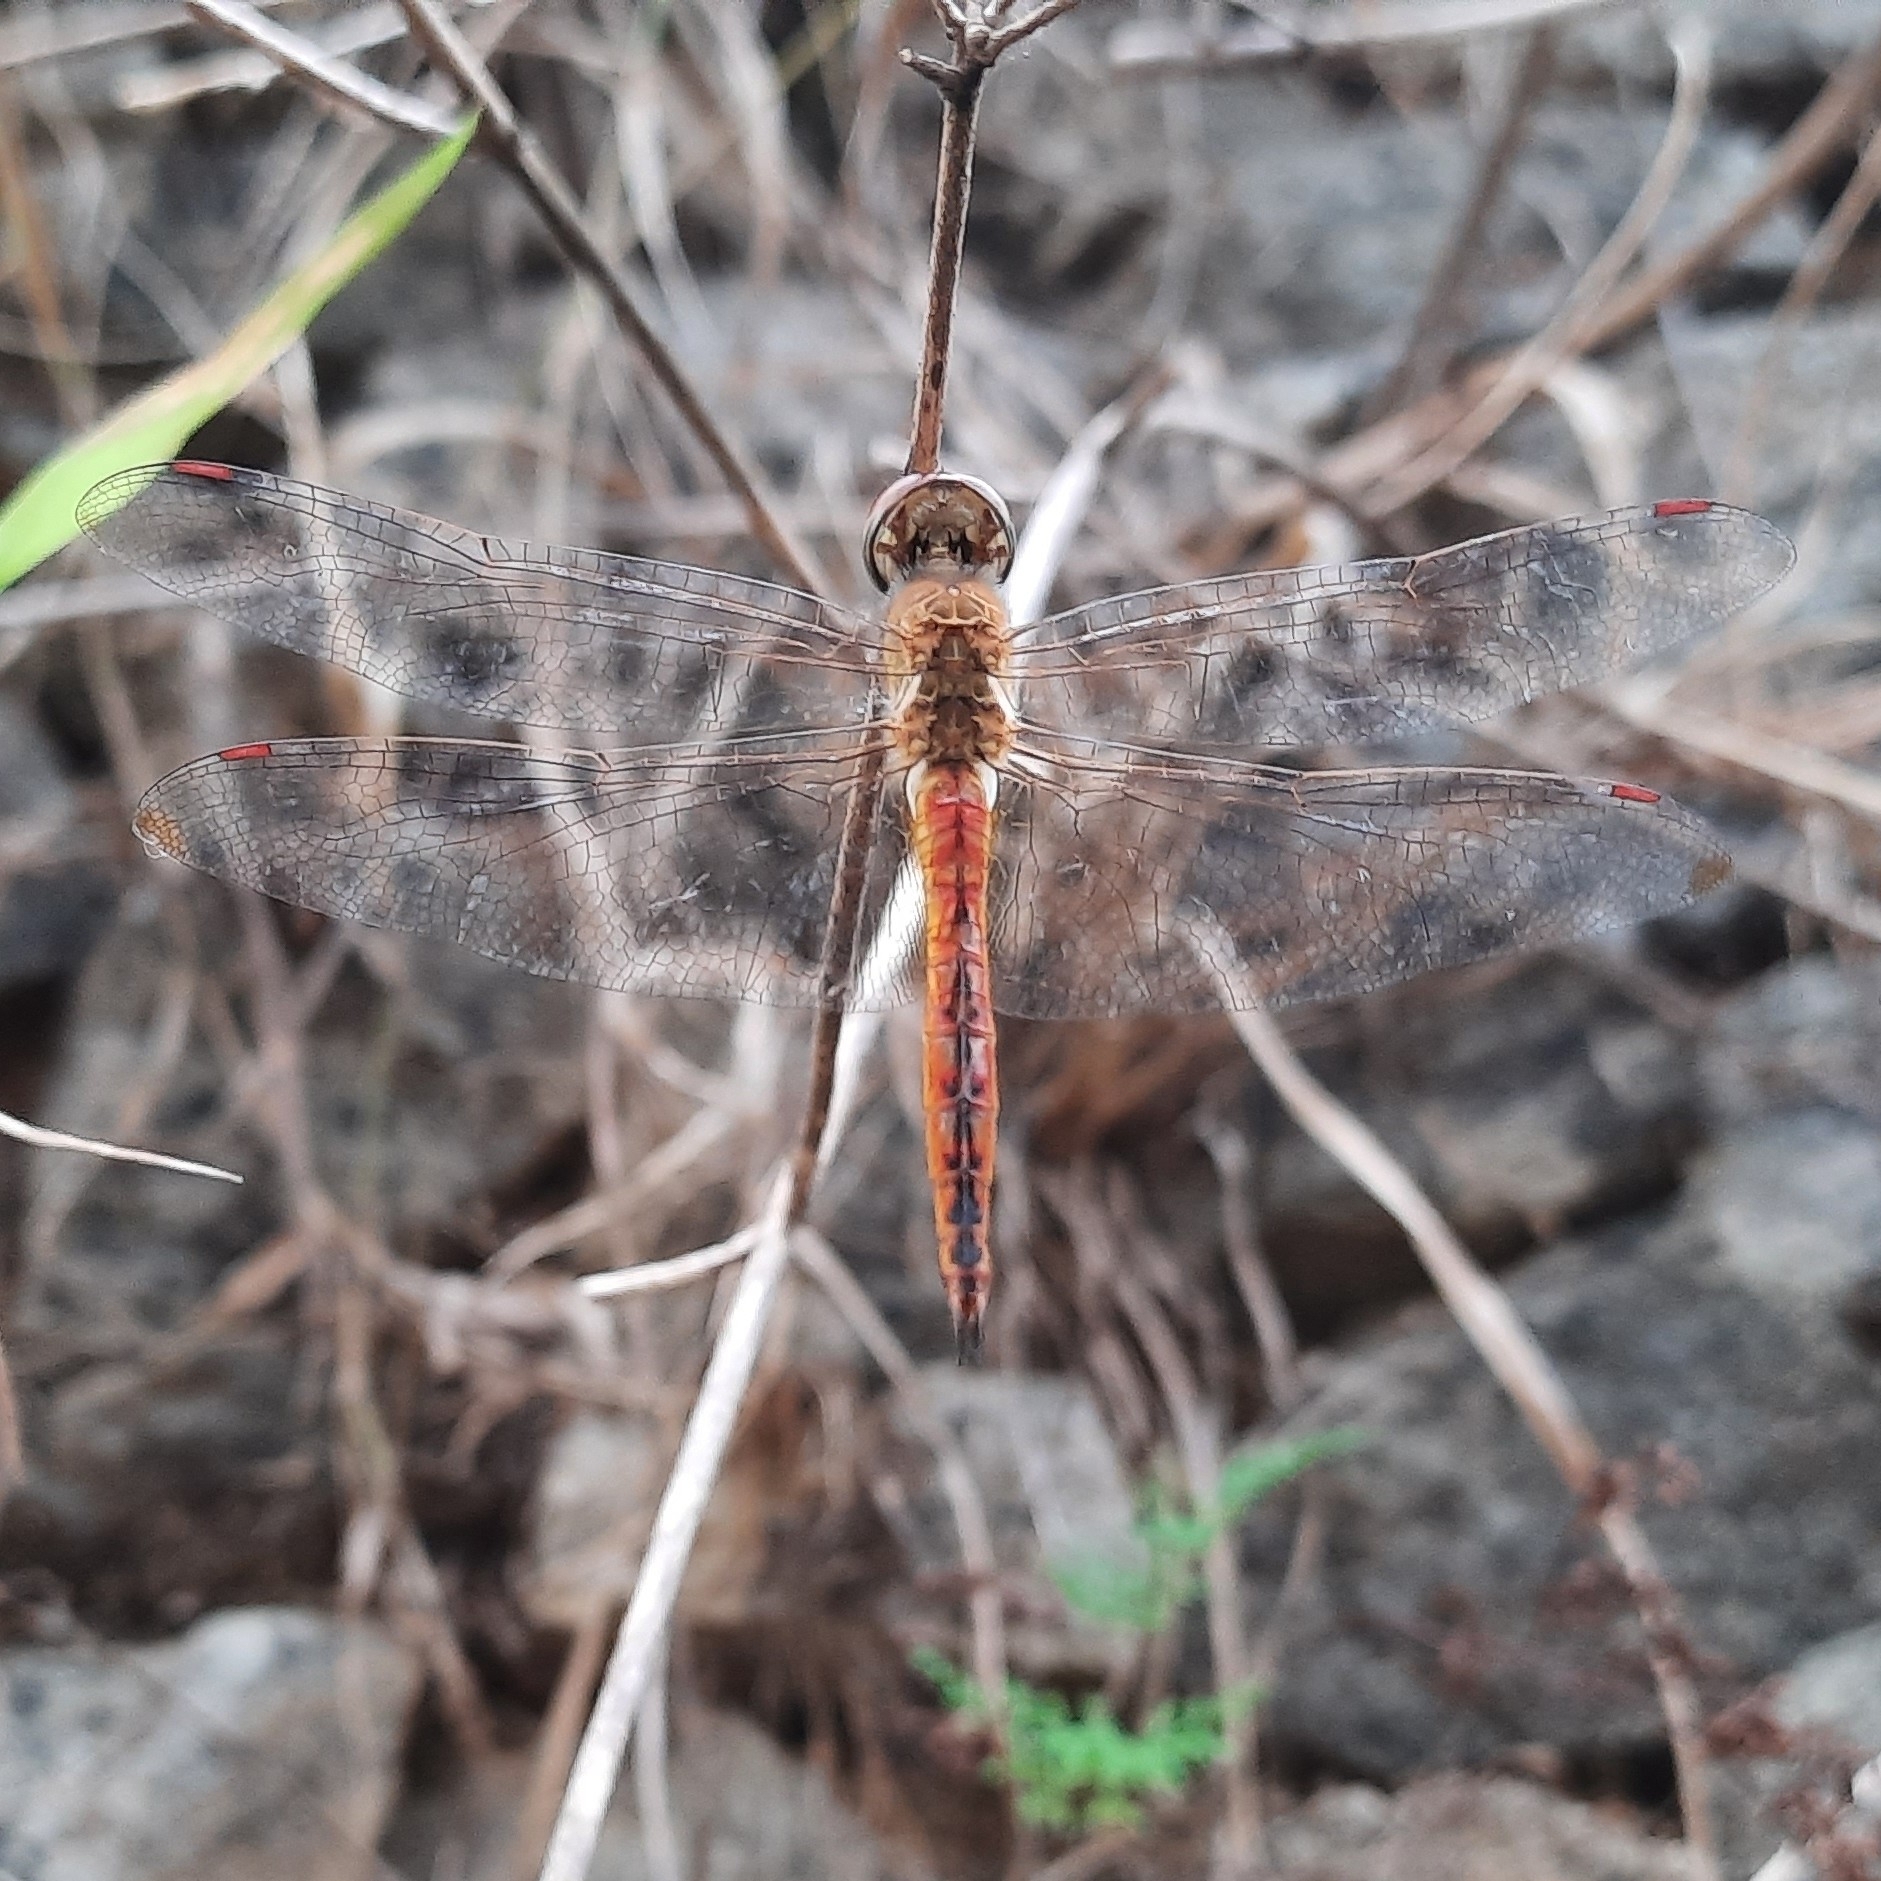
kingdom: Animalia
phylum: Arthropoda
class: Insecta
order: Odonata
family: Libellulidae
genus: Pantala
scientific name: Pantala flavescens
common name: Wandering glider
